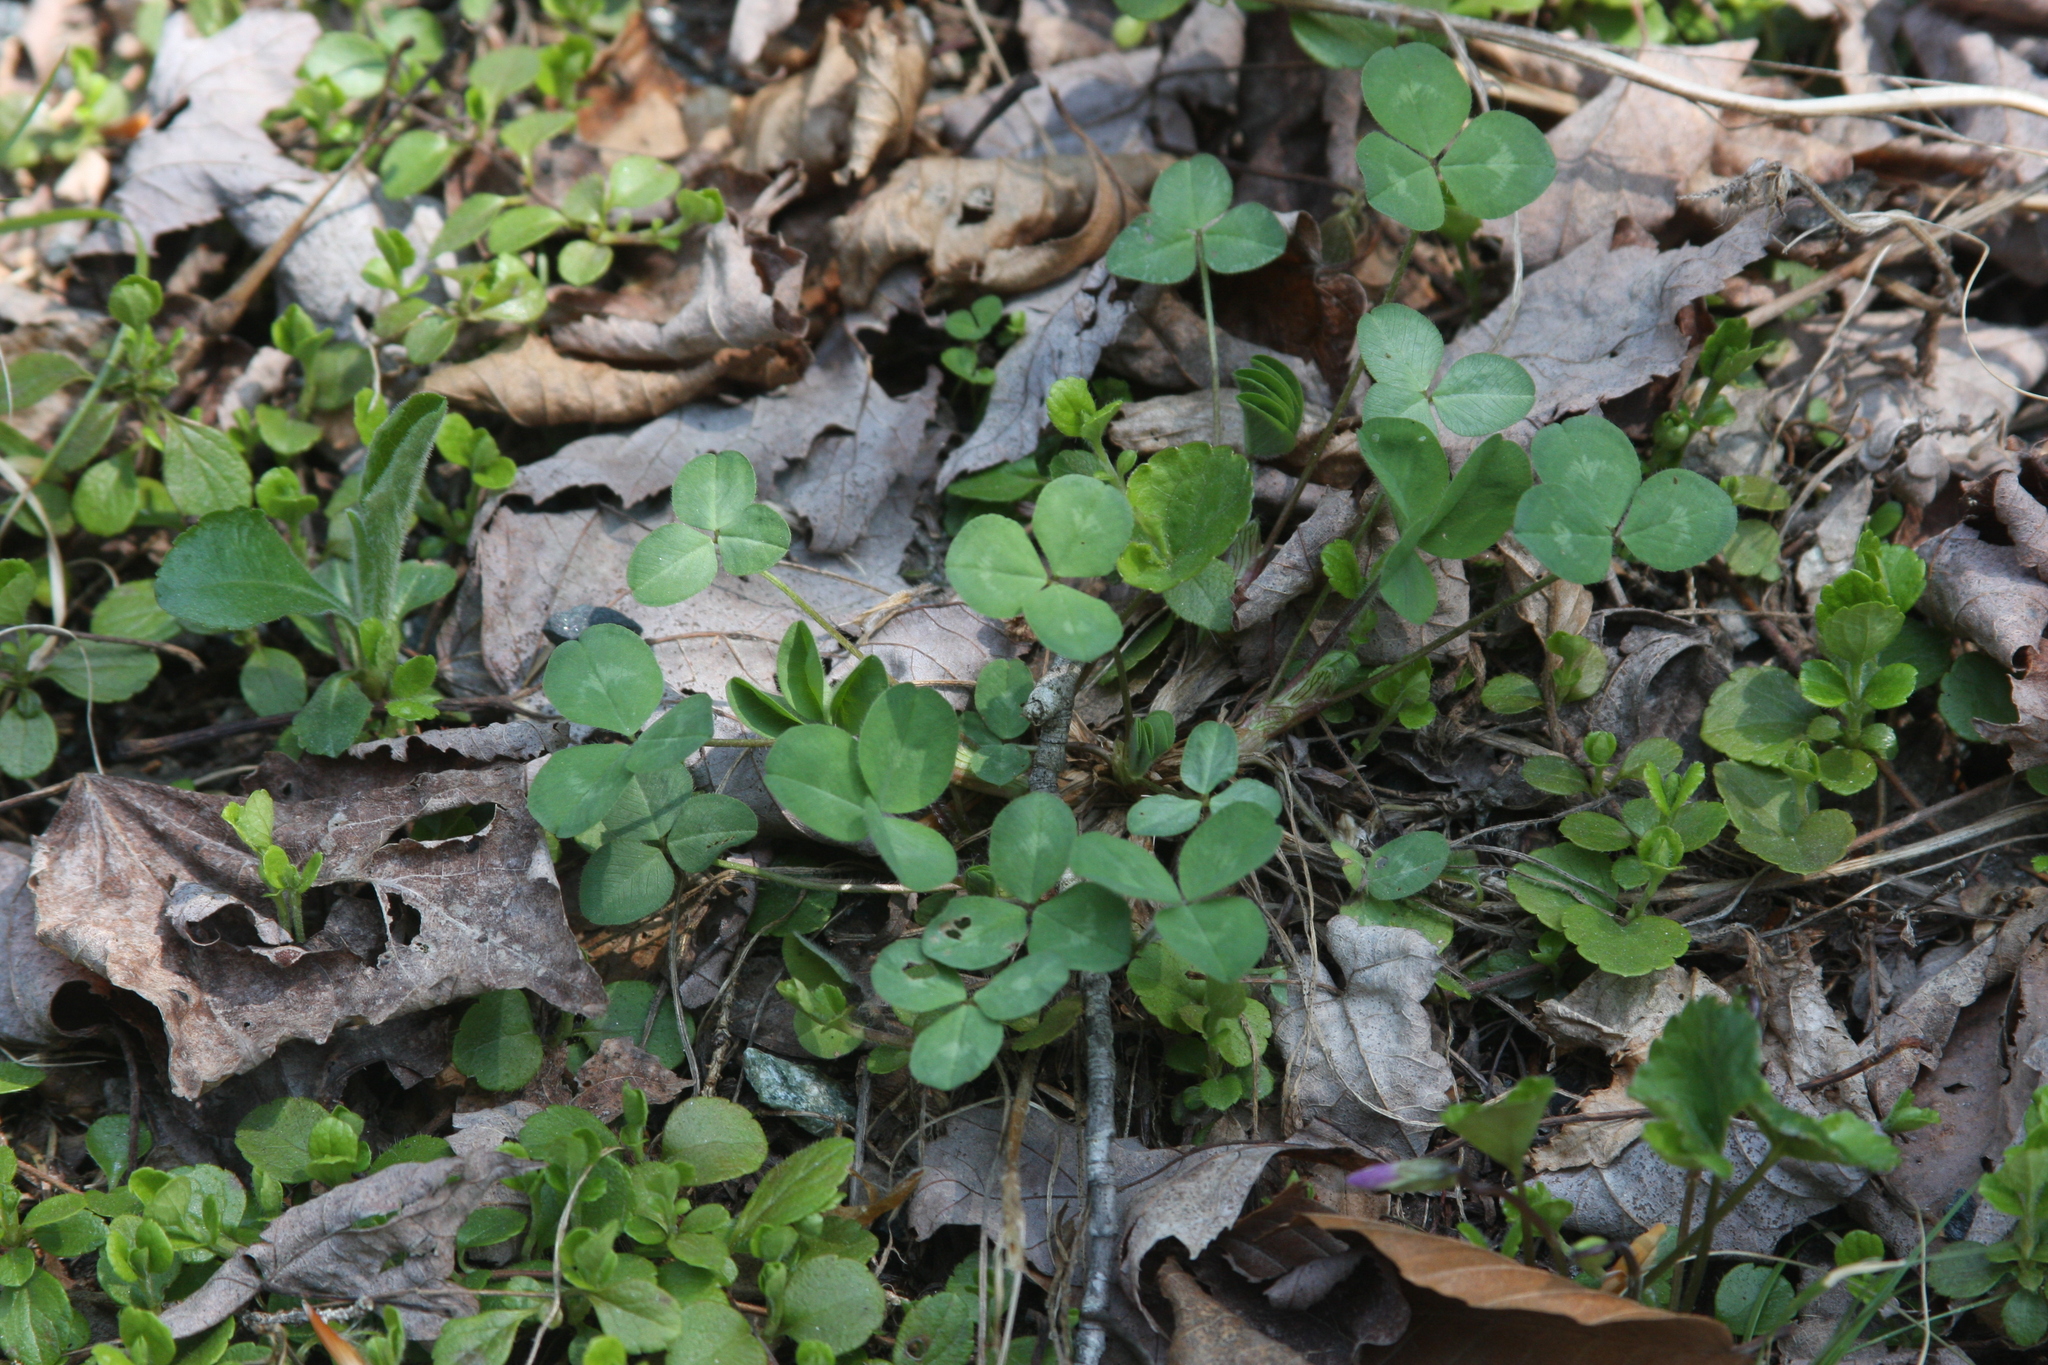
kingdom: Plantae
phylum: Tracheophyta
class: Magnoliopsida
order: Fabales
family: Fabaceae
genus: Trifolium
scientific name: Trifolium repens
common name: White clover
